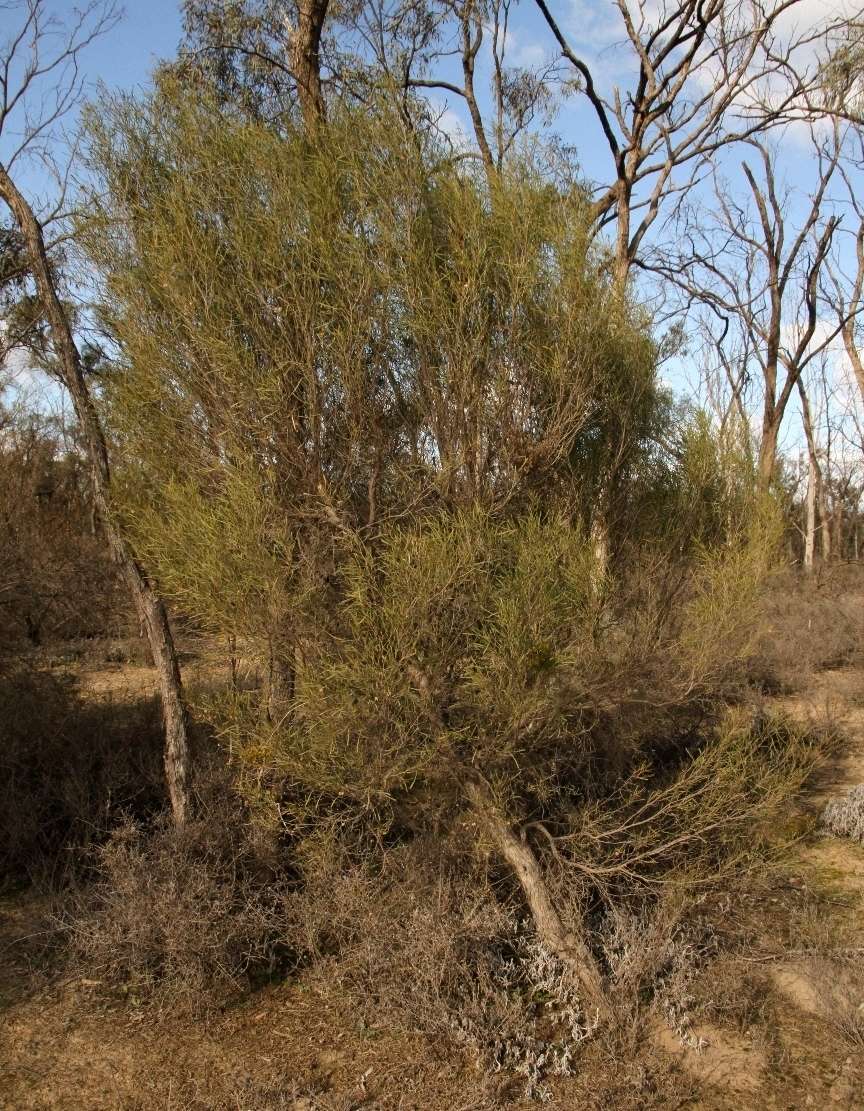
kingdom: Plantae
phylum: Tracheophyta
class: Magnoliopsida
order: Sapindales
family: Sapindaceae
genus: Dodonaea
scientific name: Dodonaea viscosa
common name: Hopbush
